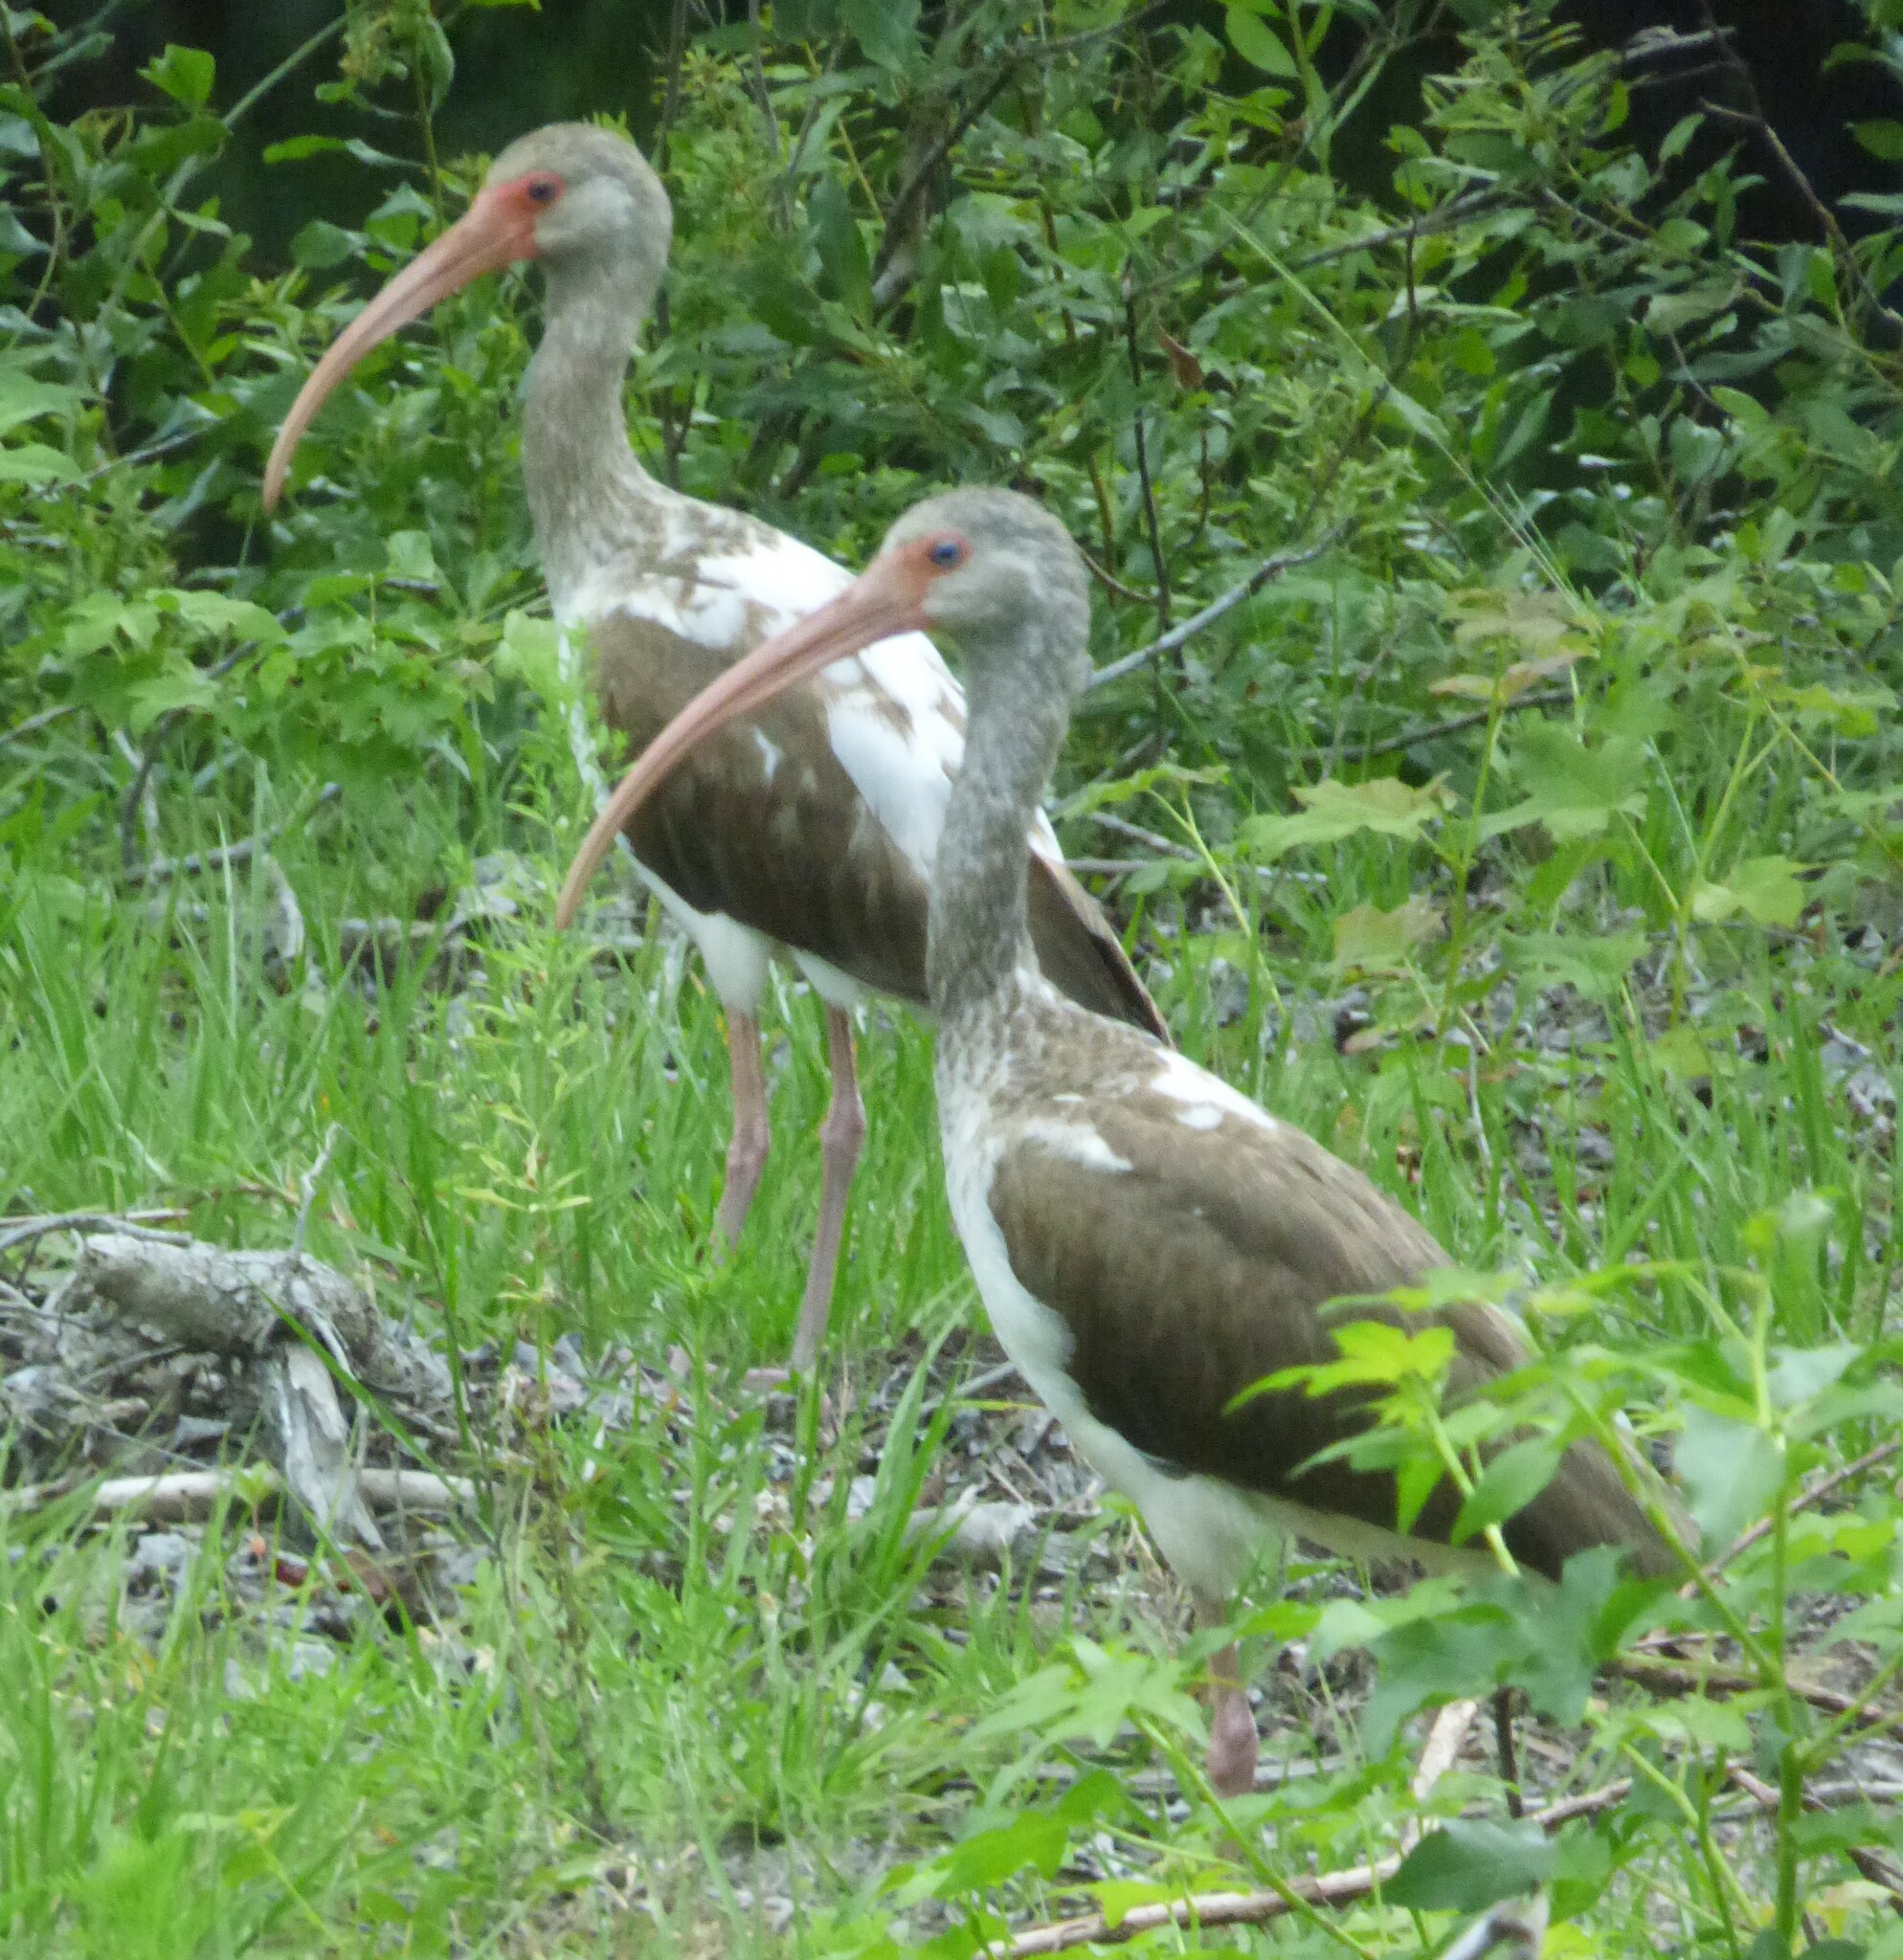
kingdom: Animalia
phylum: Chordata
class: Aves
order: Pelecaniformes
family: Threskiornithidae
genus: Eudocimus
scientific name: Eudocimus albus
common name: White ibis
